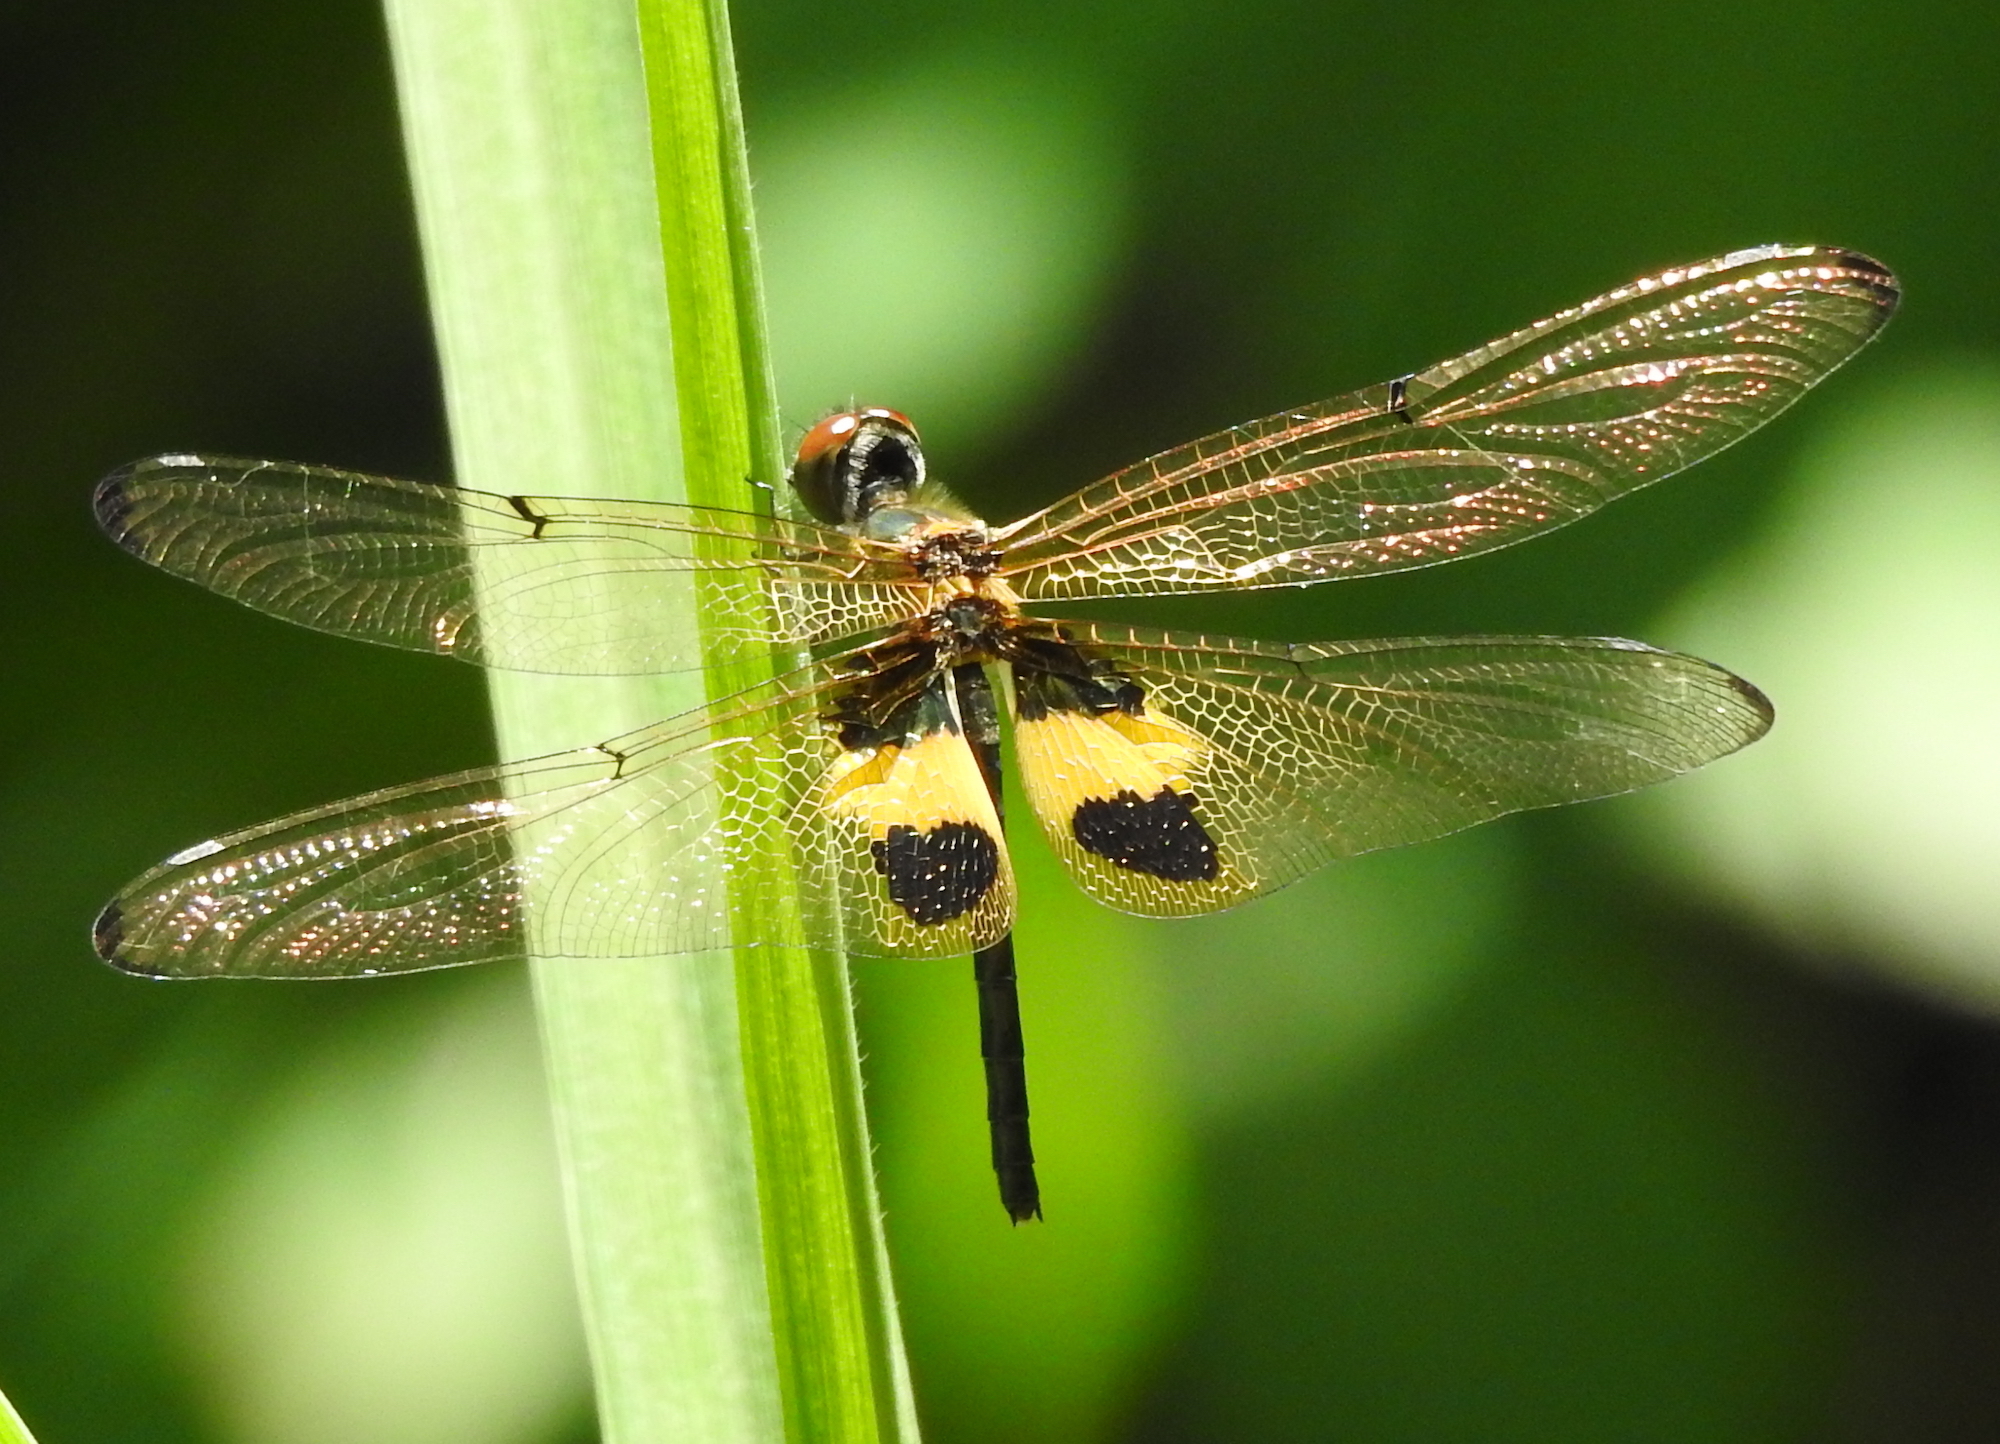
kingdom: Animalia
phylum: Arthropoda
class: Insecta
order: Odonata
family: Libellulidae
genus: Rhyothemis
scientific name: Rhyothemis phyllis
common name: Yellow-barred flutterer
